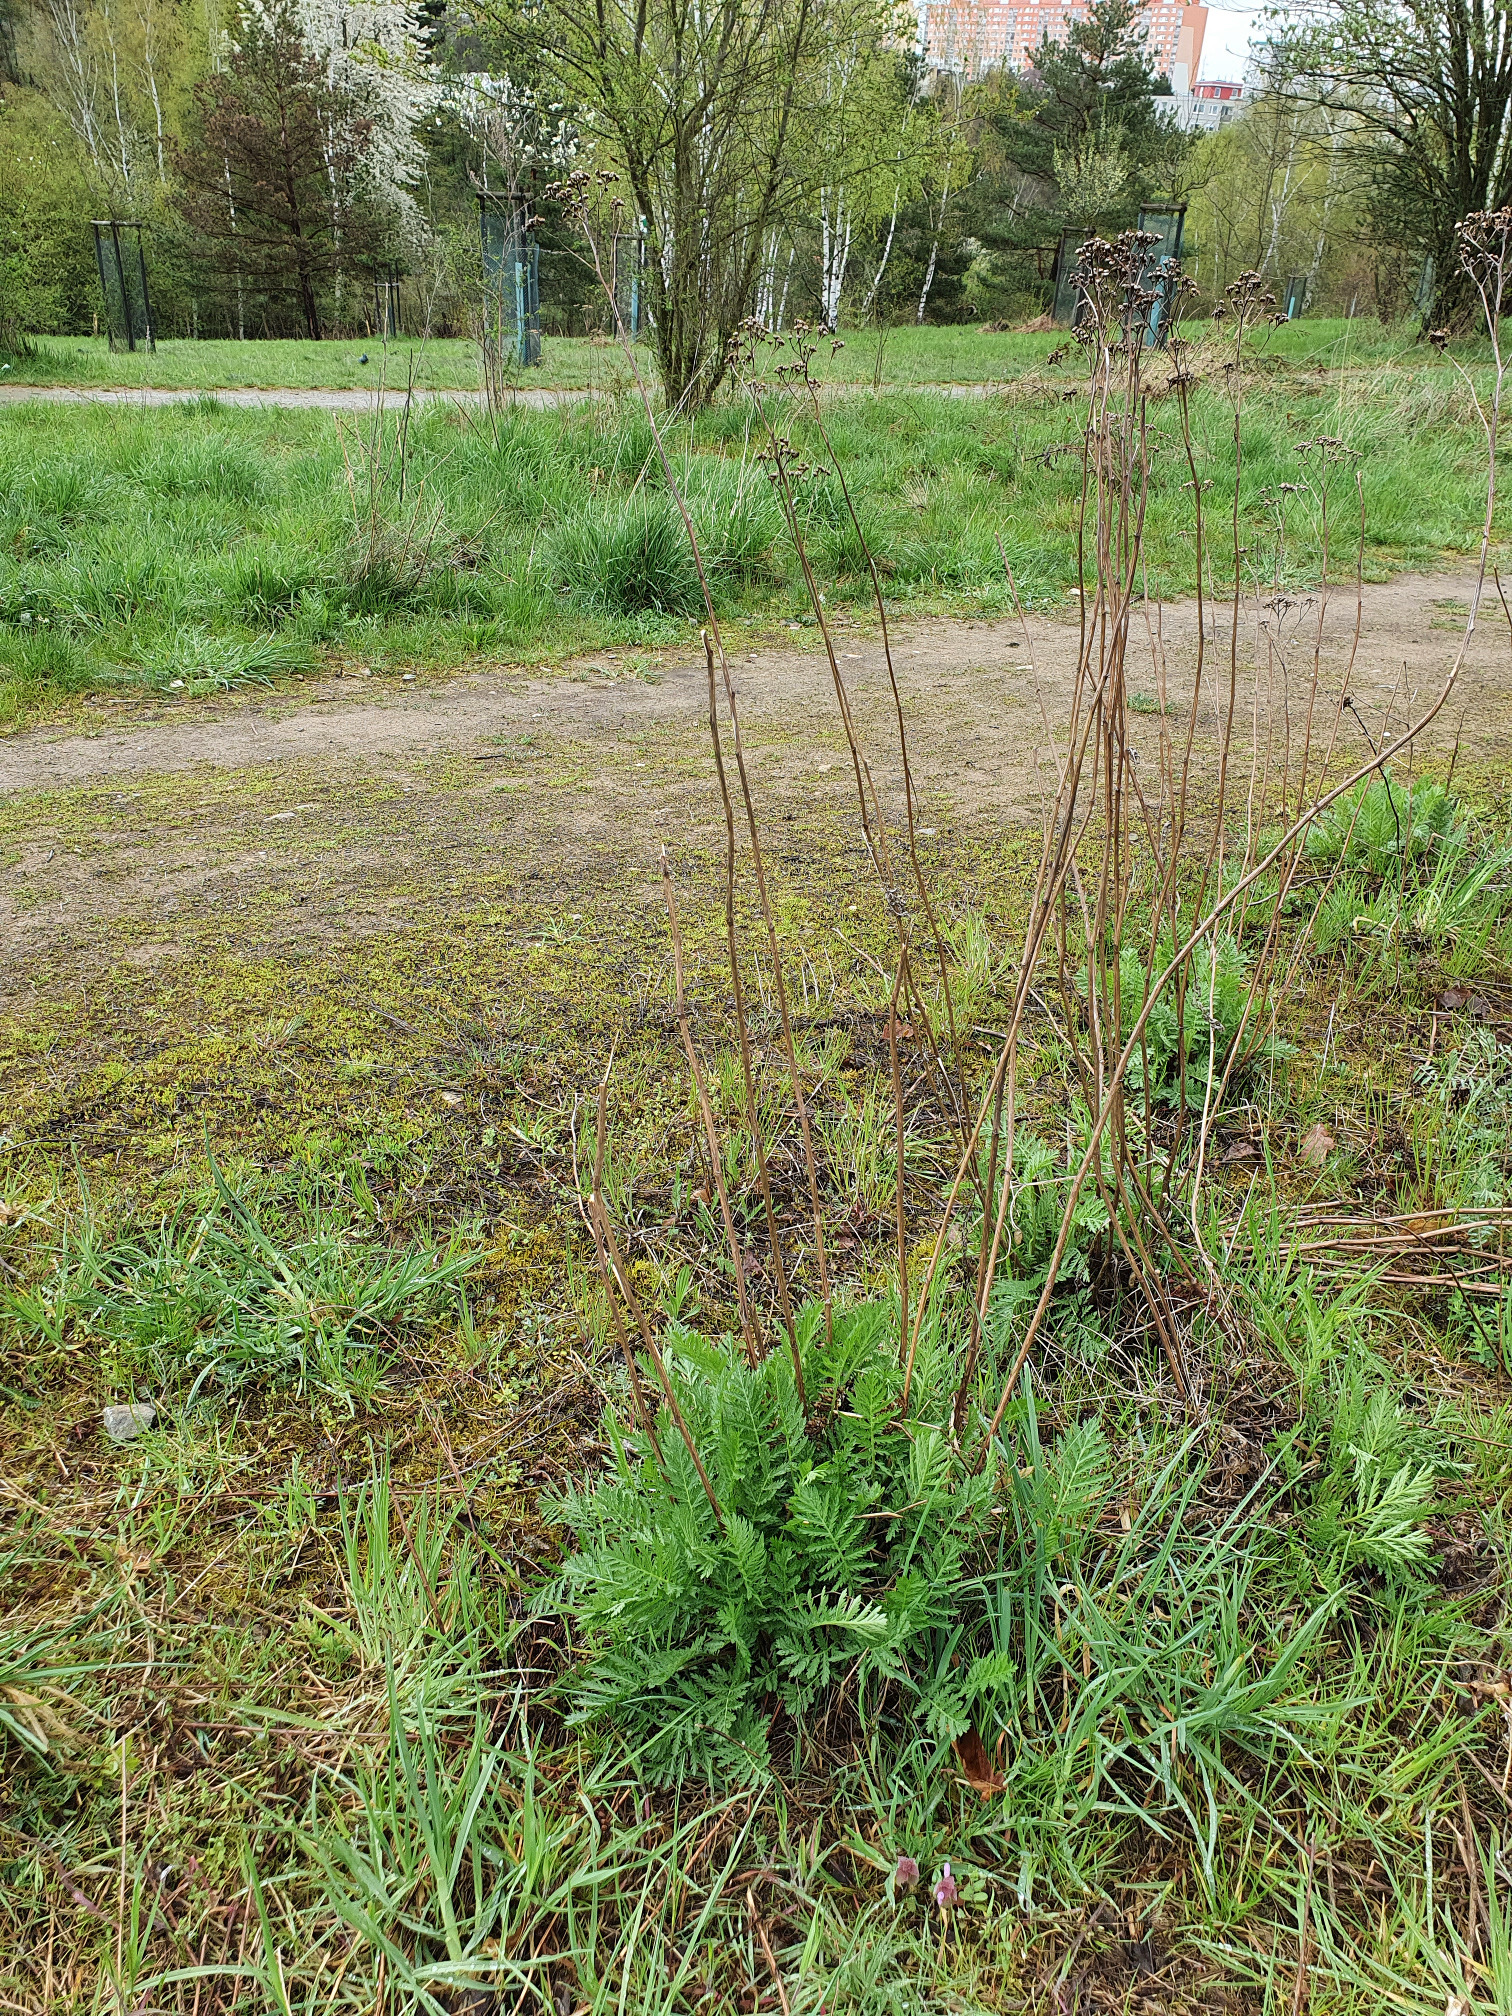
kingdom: Plantae
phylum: Tracheophyta
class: Magnoliopsida
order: Asterales
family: Asteraceae
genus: Tanacetum
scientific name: Tanacetum vulgare
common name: Common tansy
